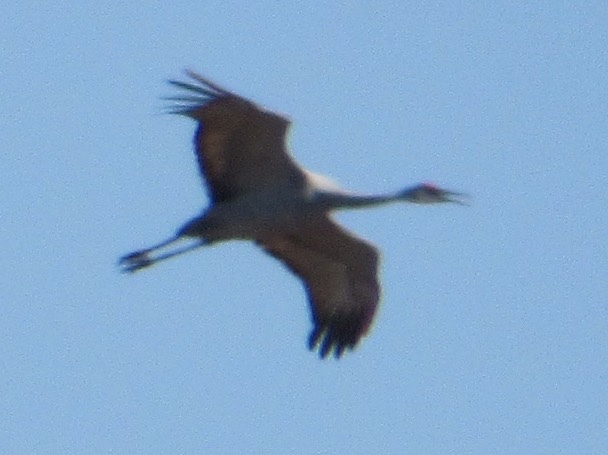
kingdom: Animalia
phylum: Chordata
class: Aves
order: Gruiformes
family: Gruidae
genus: Grus
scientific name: Grus canadensis
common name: Sandhill crane
